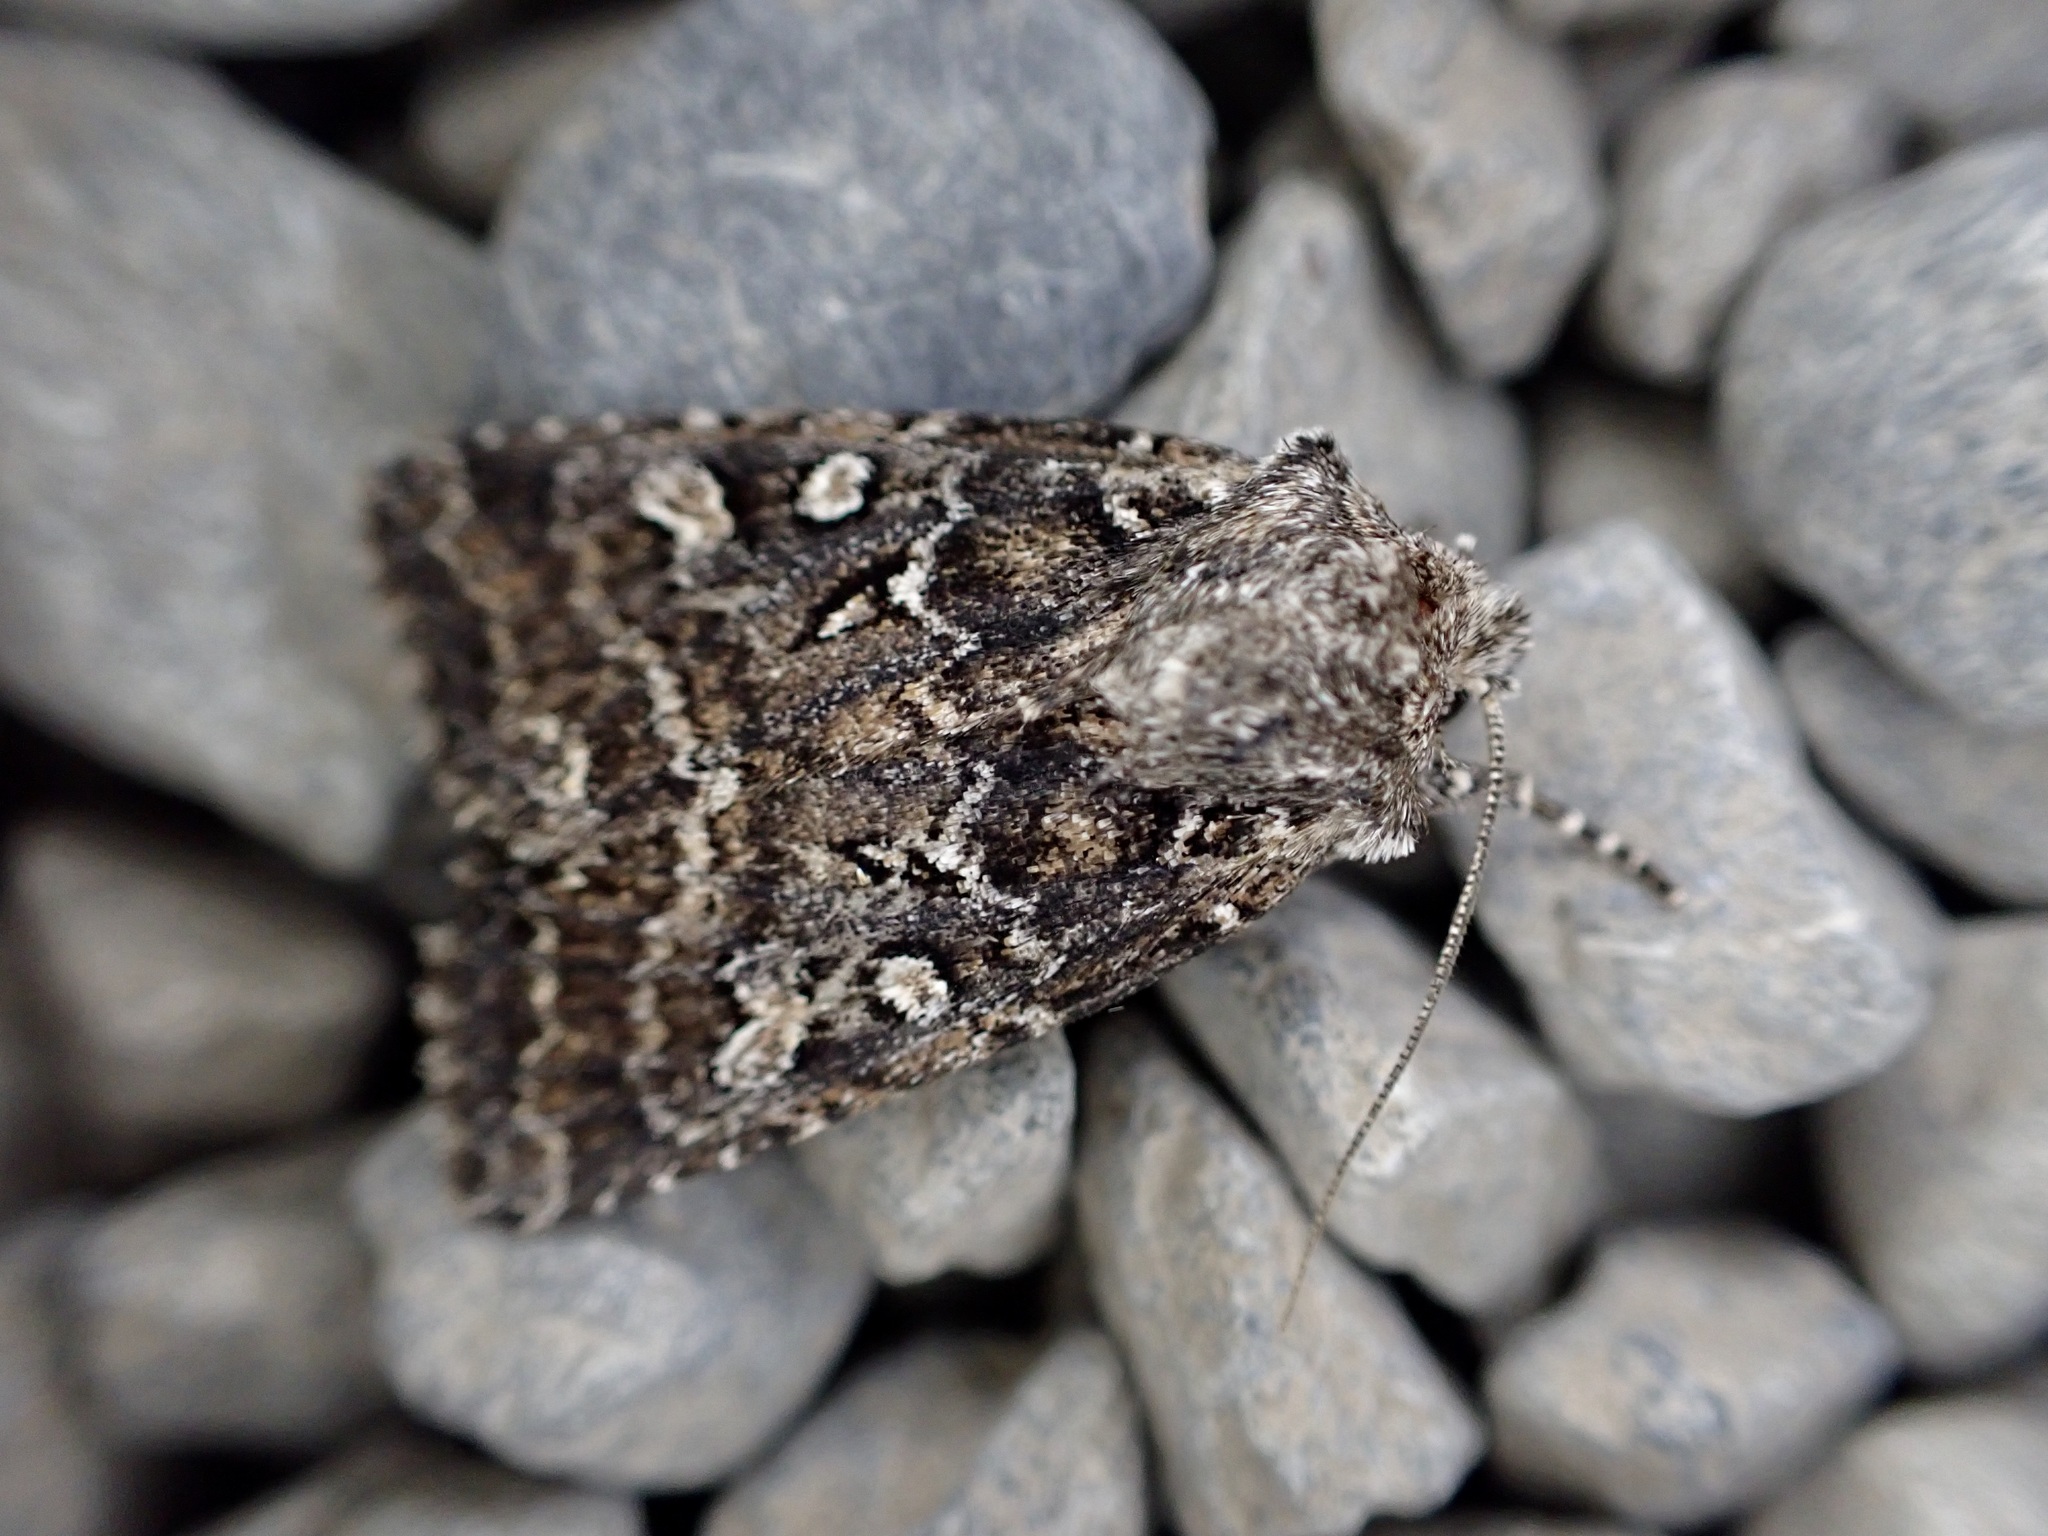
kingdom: Animalia
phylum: Arthropoda
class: Insecta
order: Lepidoptera
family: Noctuidae
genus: Ichneutica
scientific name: Ichneutica lithias
